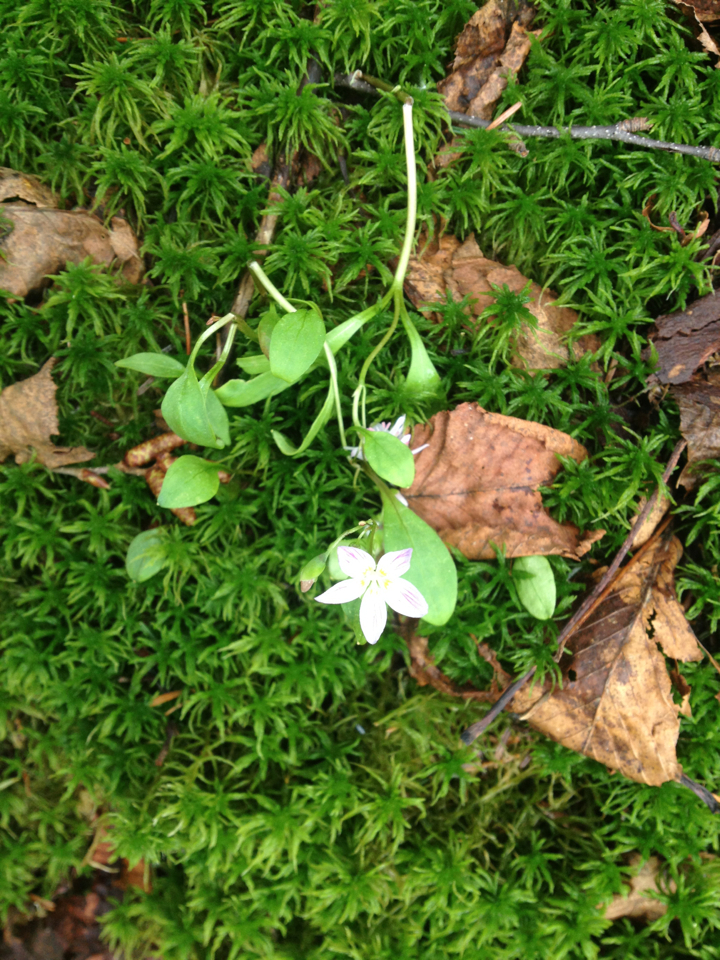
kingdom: Plantae
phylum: Tracheophyta
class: Magnoliopsida
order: Caryophyllales
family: Montiaceae
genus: Claytonia
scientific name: Claytonia caroliniana
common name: Carolina spring beauty
